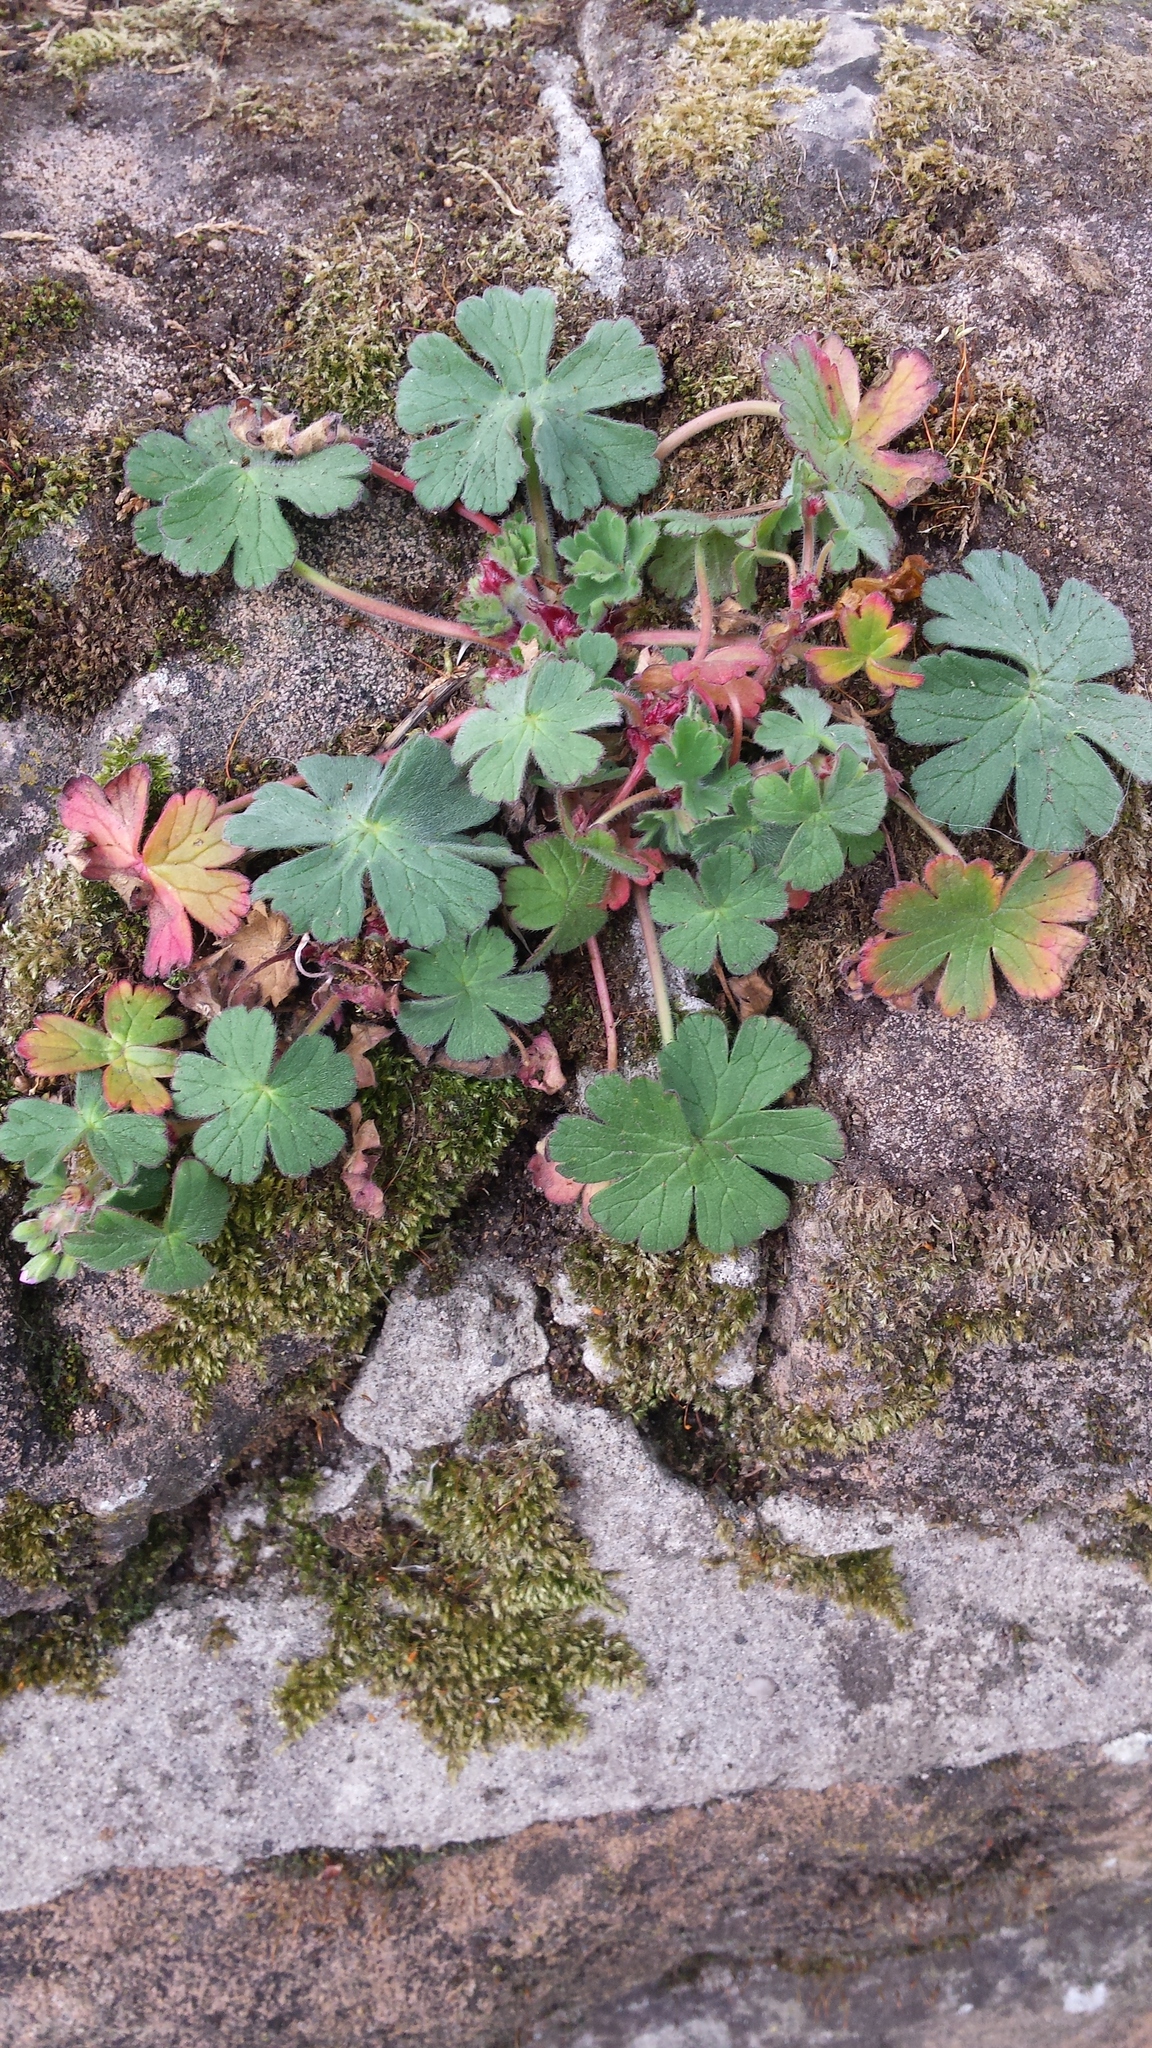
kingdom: Plantae
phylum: Tracheophyta
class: Magnoliopsida
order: Geraniales
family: Geraniaceae
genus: Geranium
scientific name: Geranium molle
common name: Dove's-foot crane's-bill
